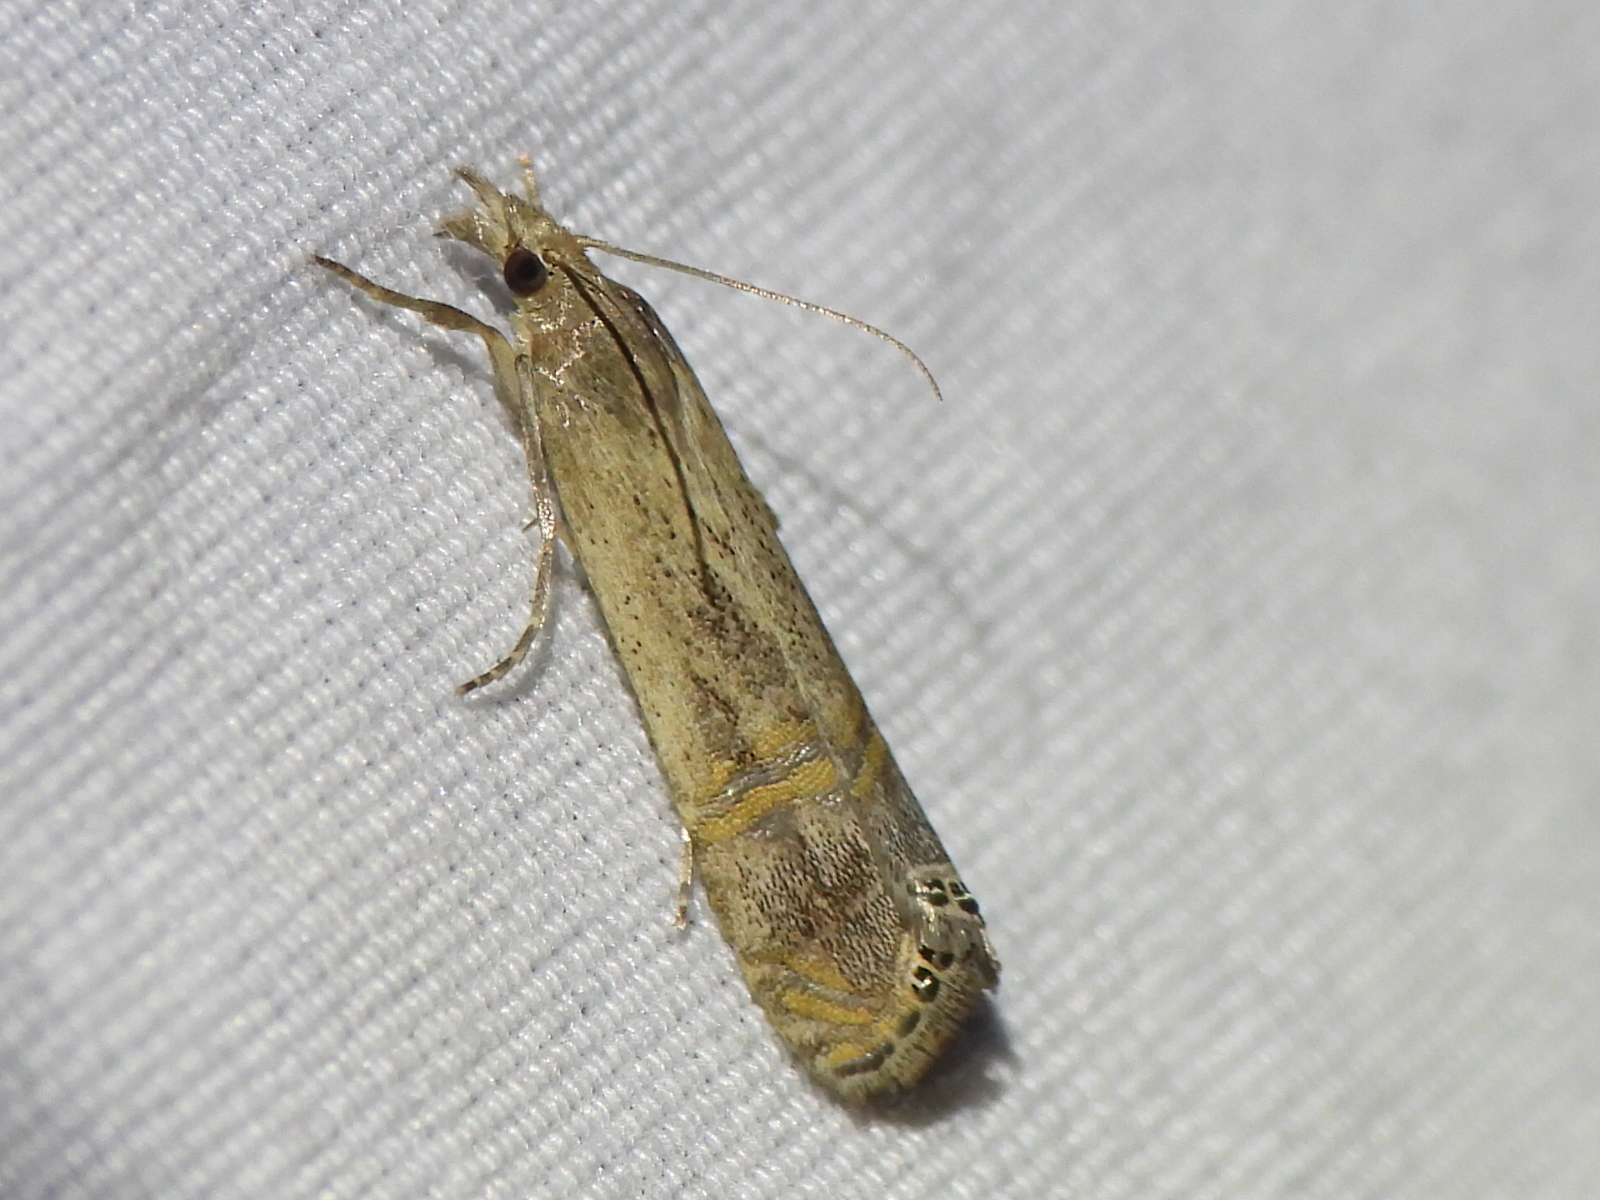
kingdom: Animalia
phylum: Arthropoda
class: Insecta
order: Lepidoptera
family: Crambidae
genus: Euchromius
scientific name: Euchromius ocellea
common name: Necklace veneer moth
